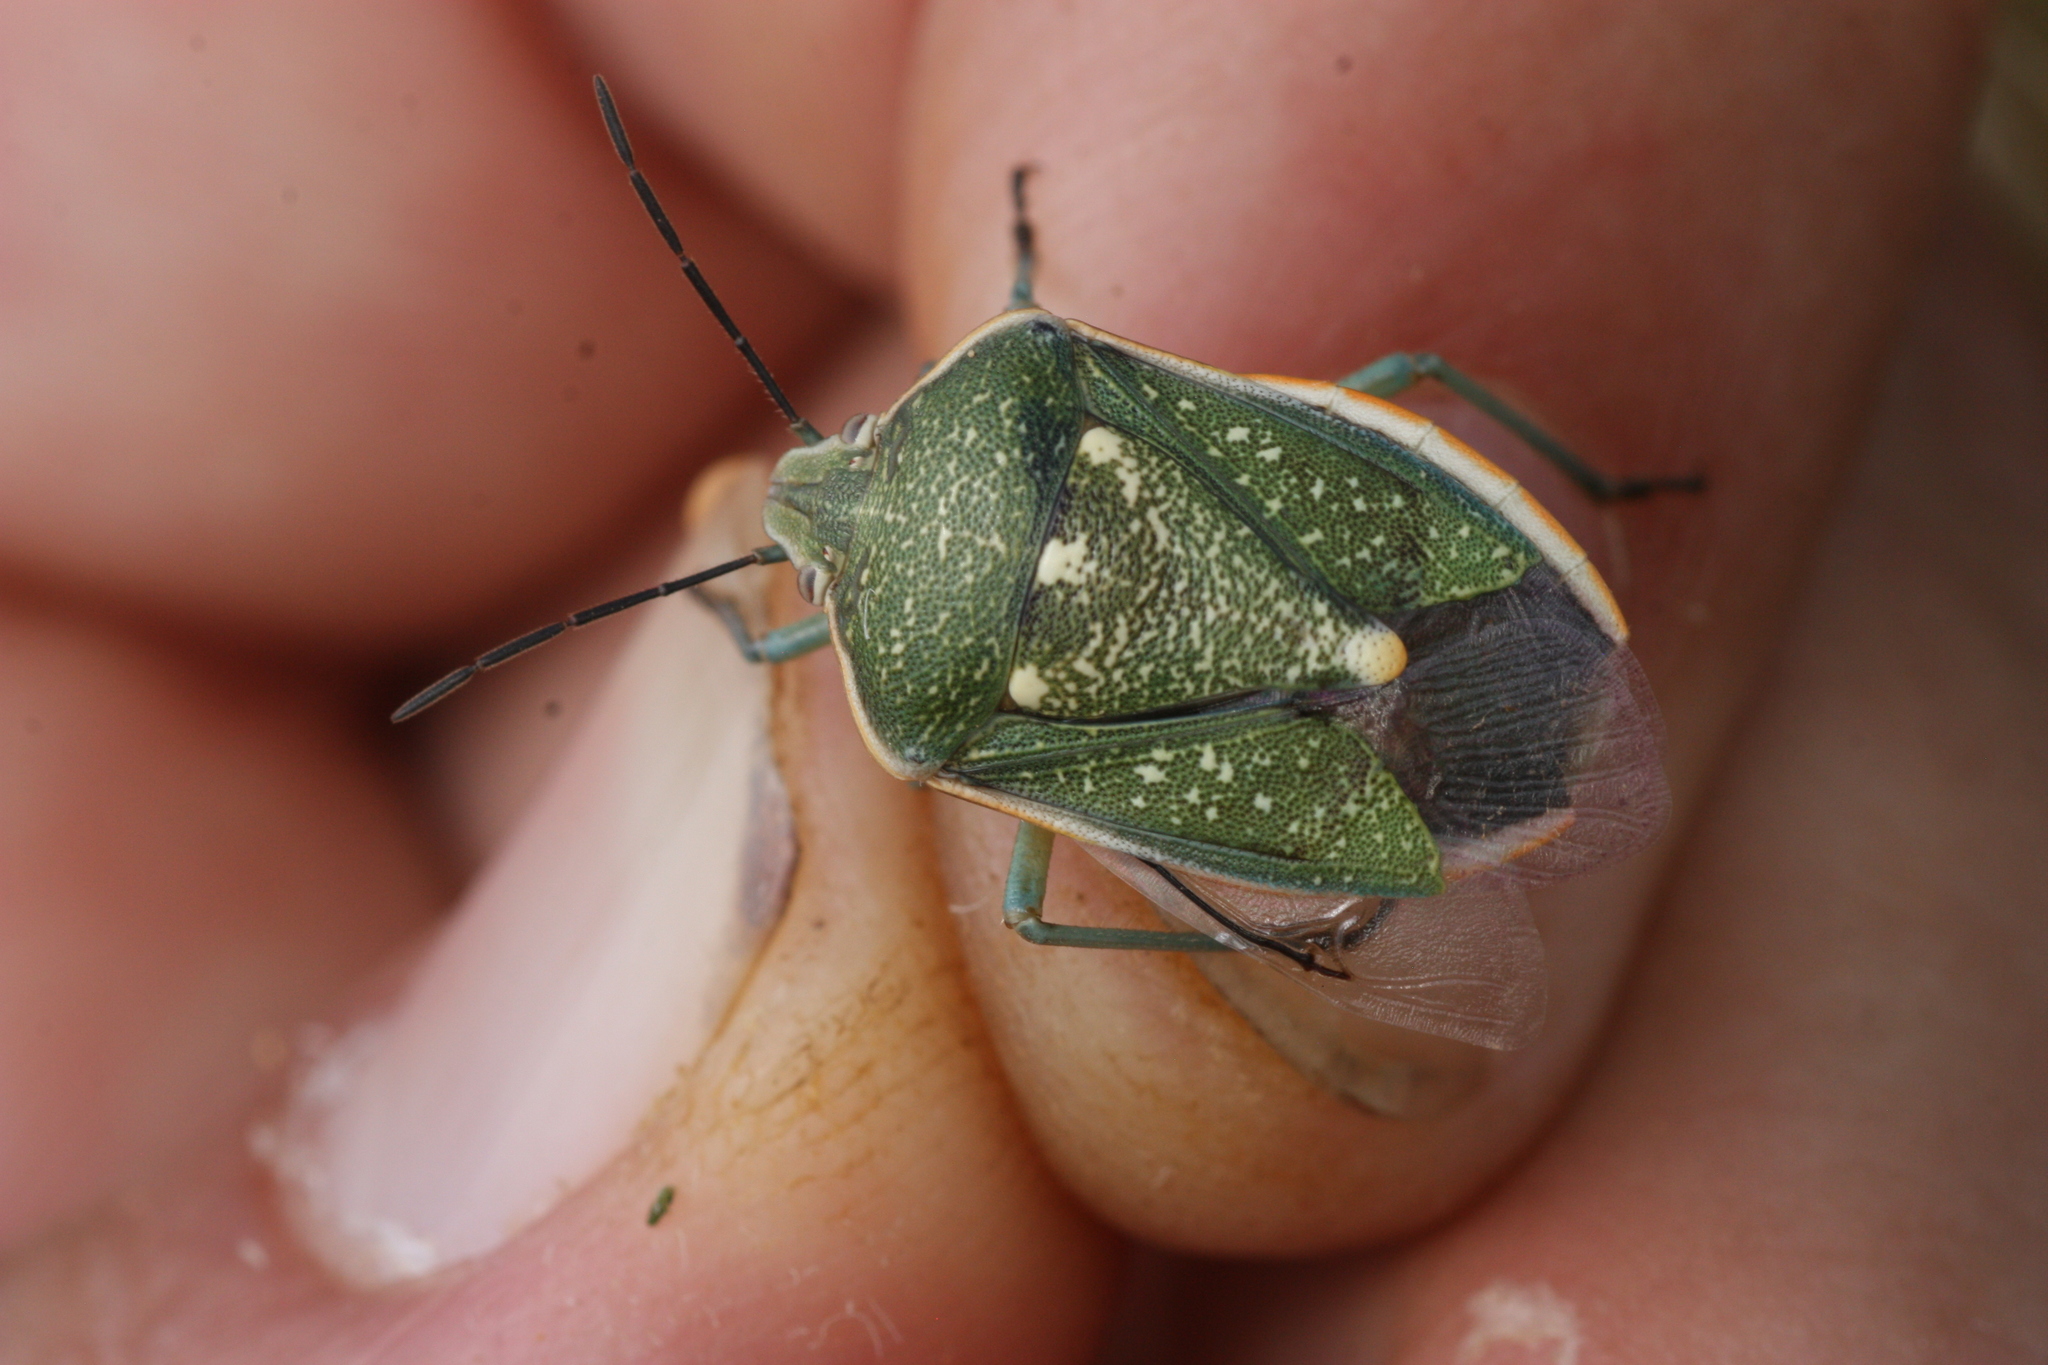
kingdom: Animalia
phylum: Arthropoda
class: Insecta
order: Hemiptera
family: Pentatomidae
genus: Chlorochroa
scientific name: Chlorochroa sayi
